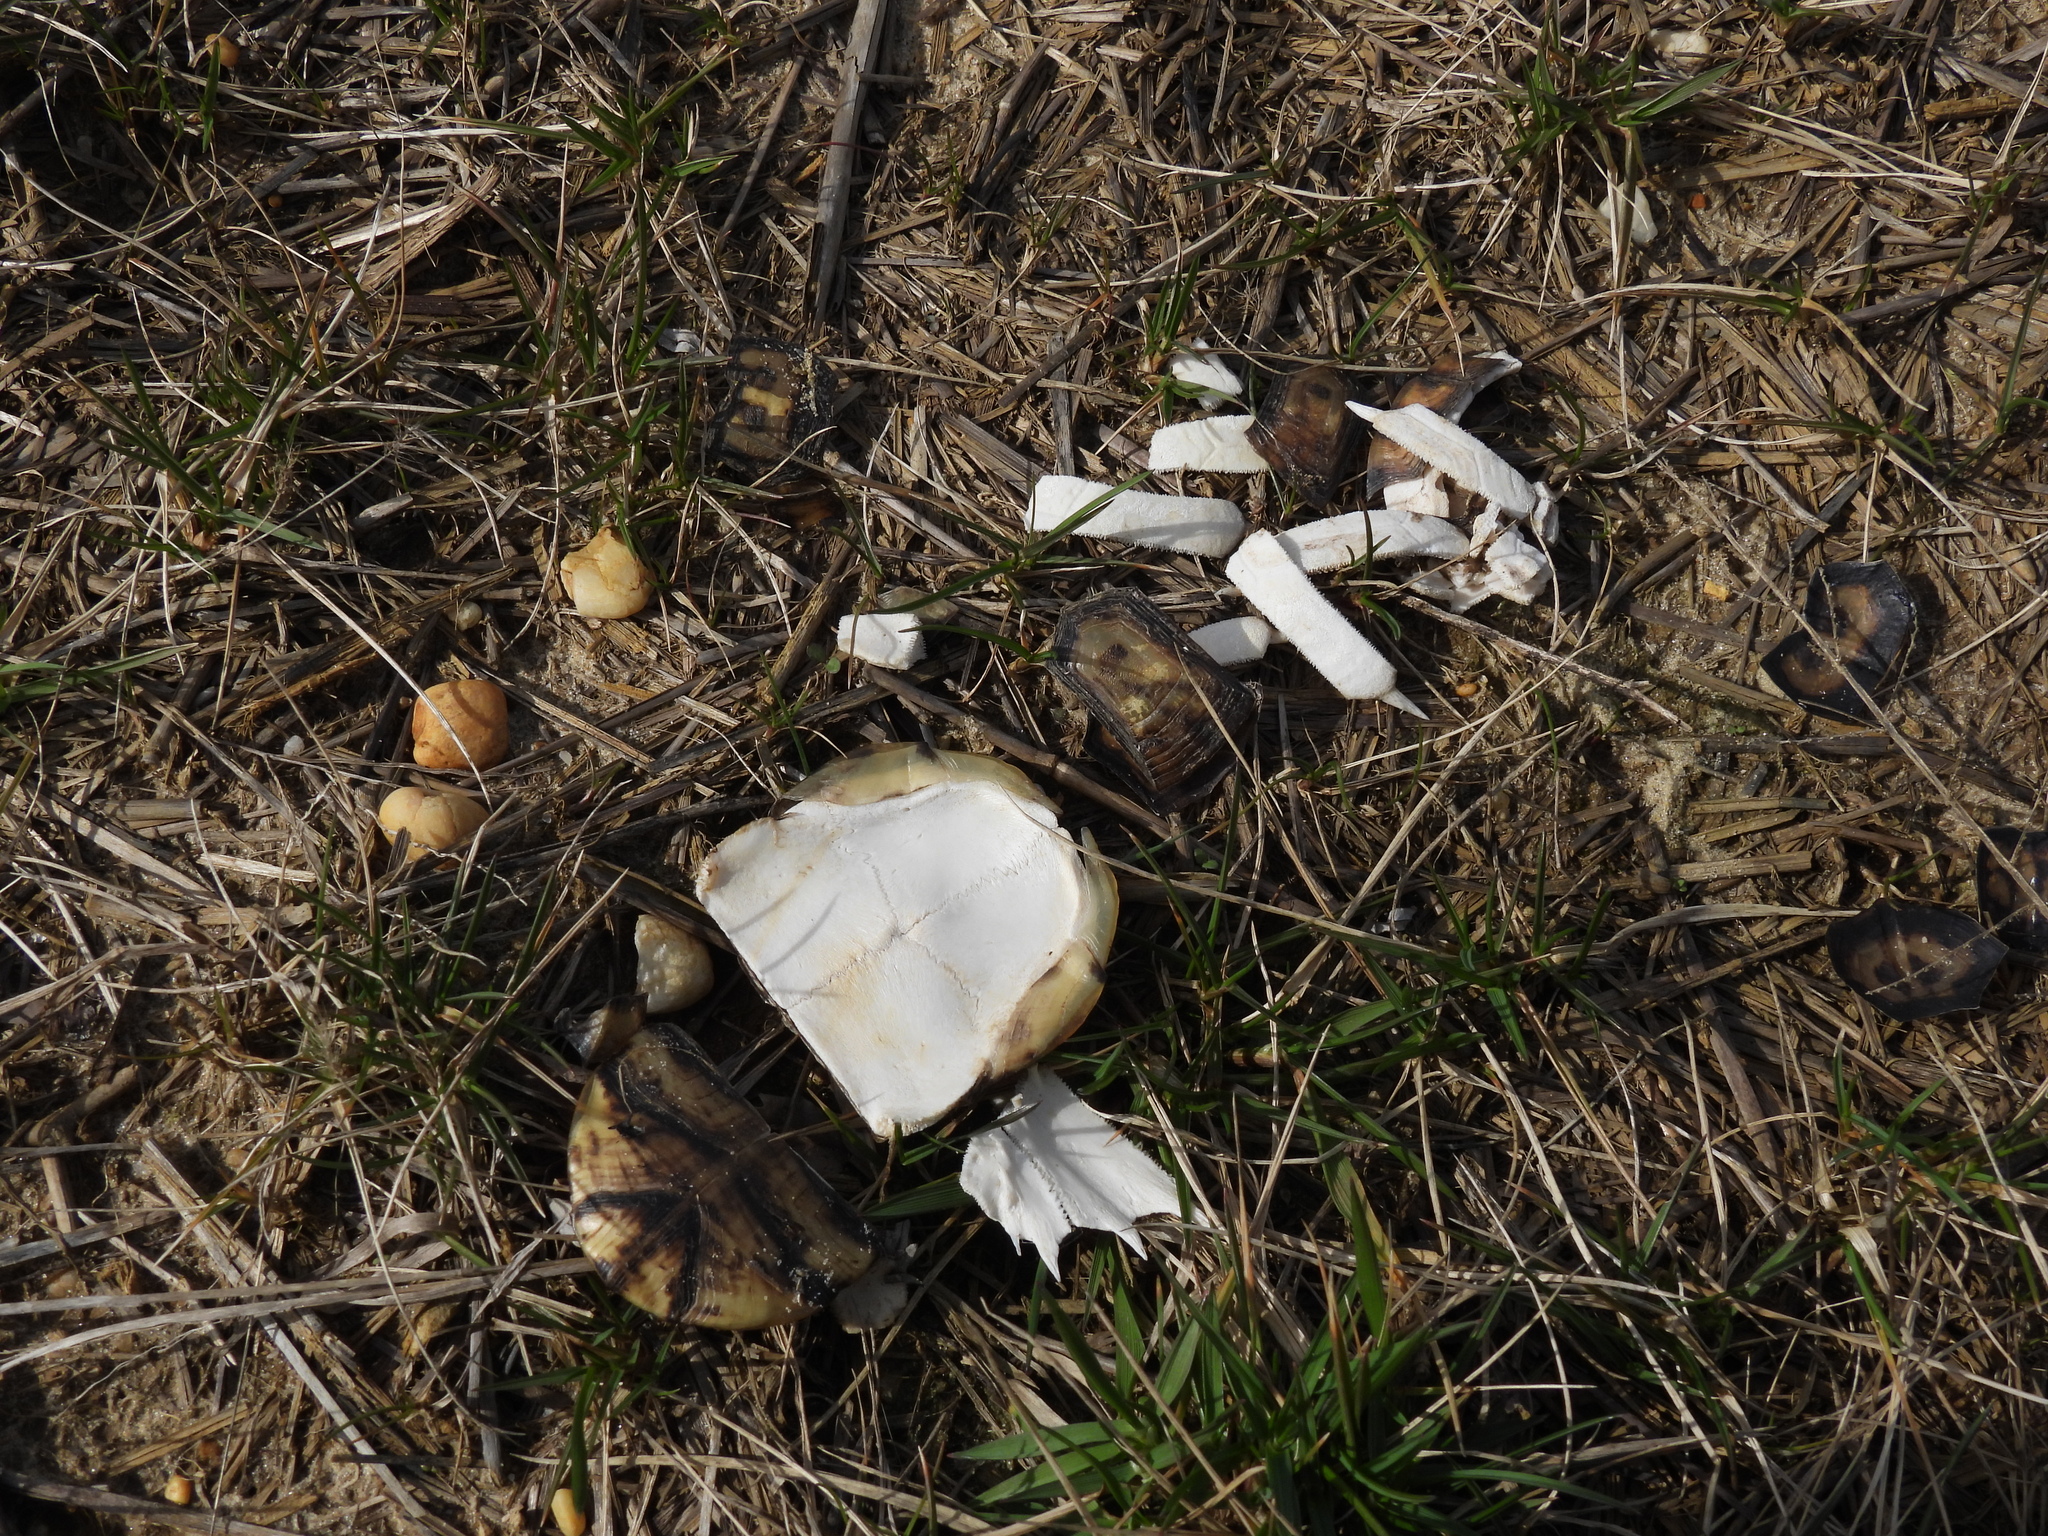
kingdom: Animalia
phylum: Chordata
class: Testudines
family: Emydidae
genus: Terrapene
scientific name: Terrapene carolina
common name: Common box turtle
